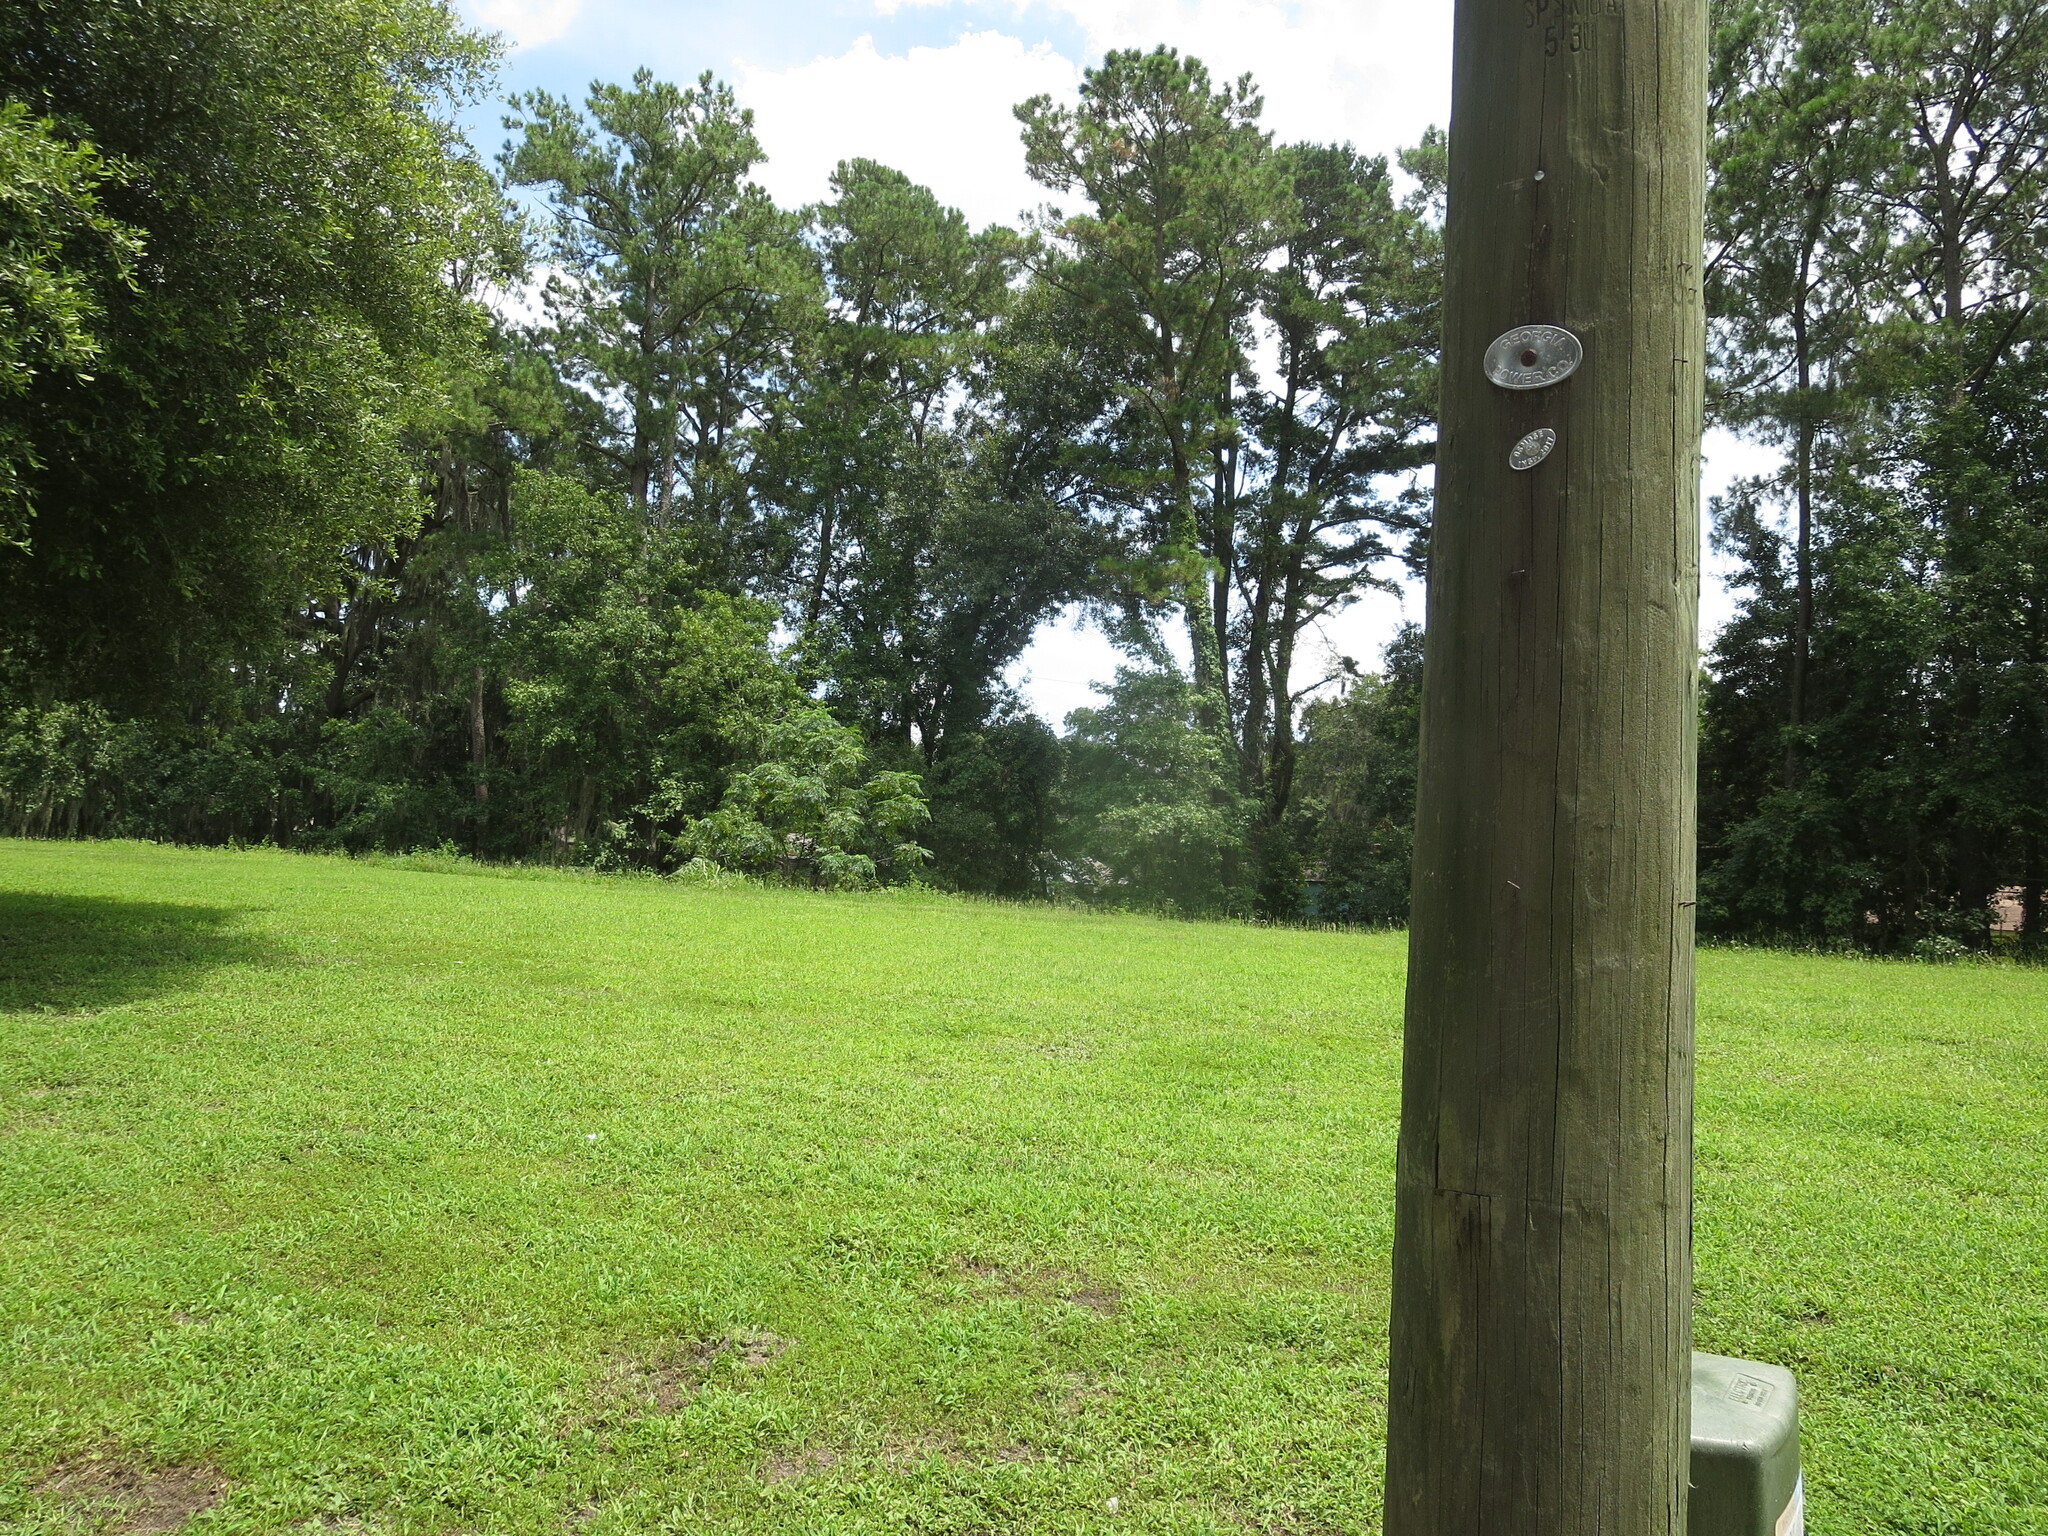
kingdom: Plantae
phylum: Tracheophyta
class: Magnoliopsida
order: Sapindales
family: Meliaceae
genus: Melia
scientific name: Melia azedarach
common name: Chinaberrytree
